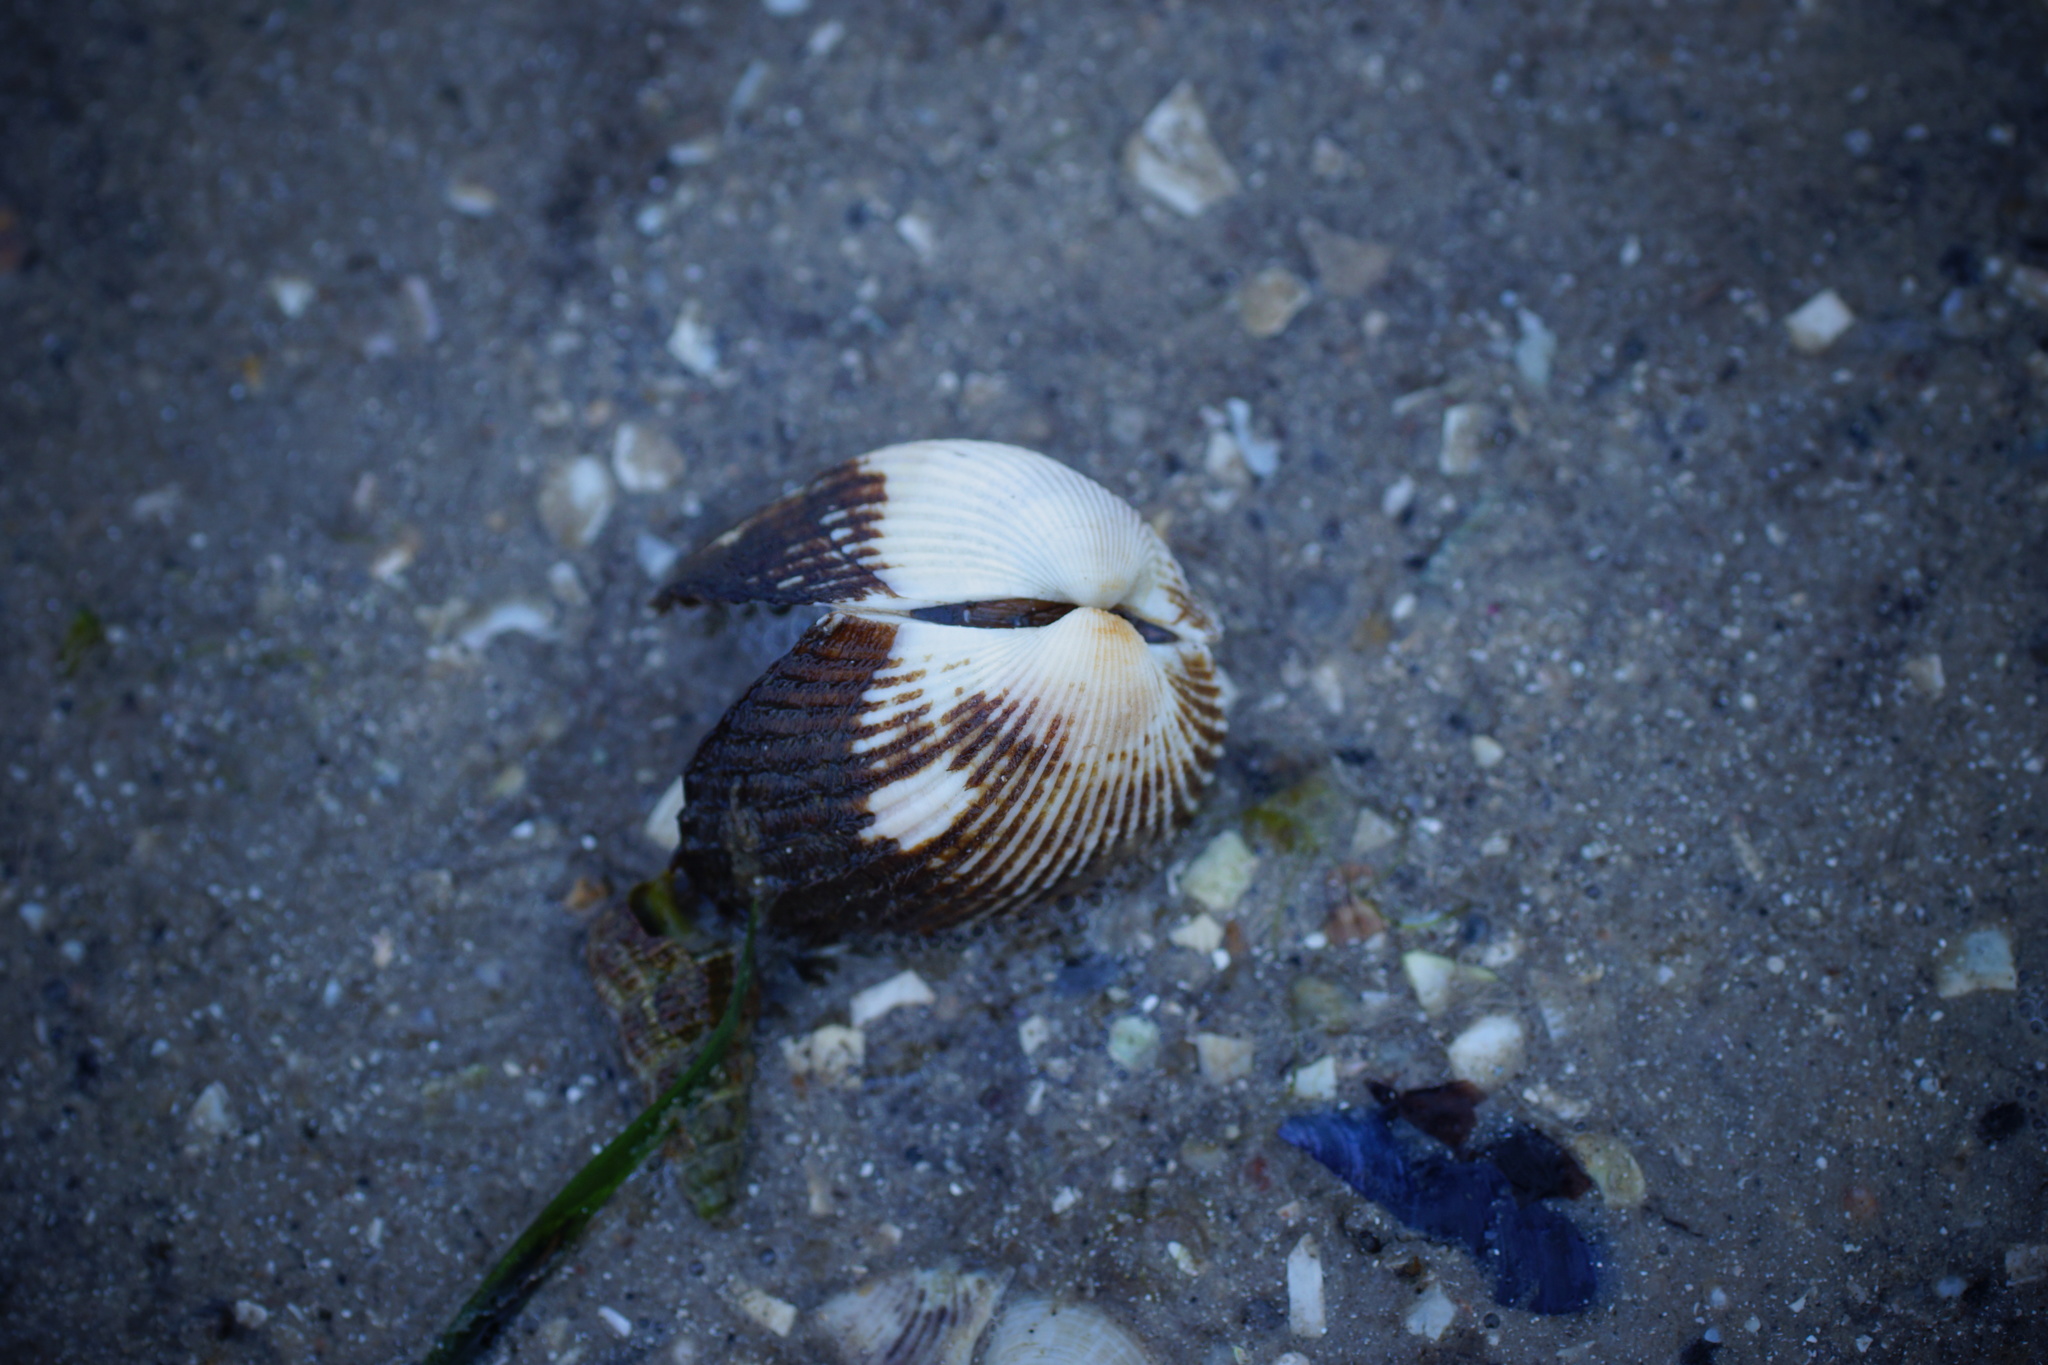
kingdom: Animalia
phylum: Mollusca
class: Bivalvia
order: Arcida
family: Arcidae
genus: Anadara
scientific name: Anadara trapezia
